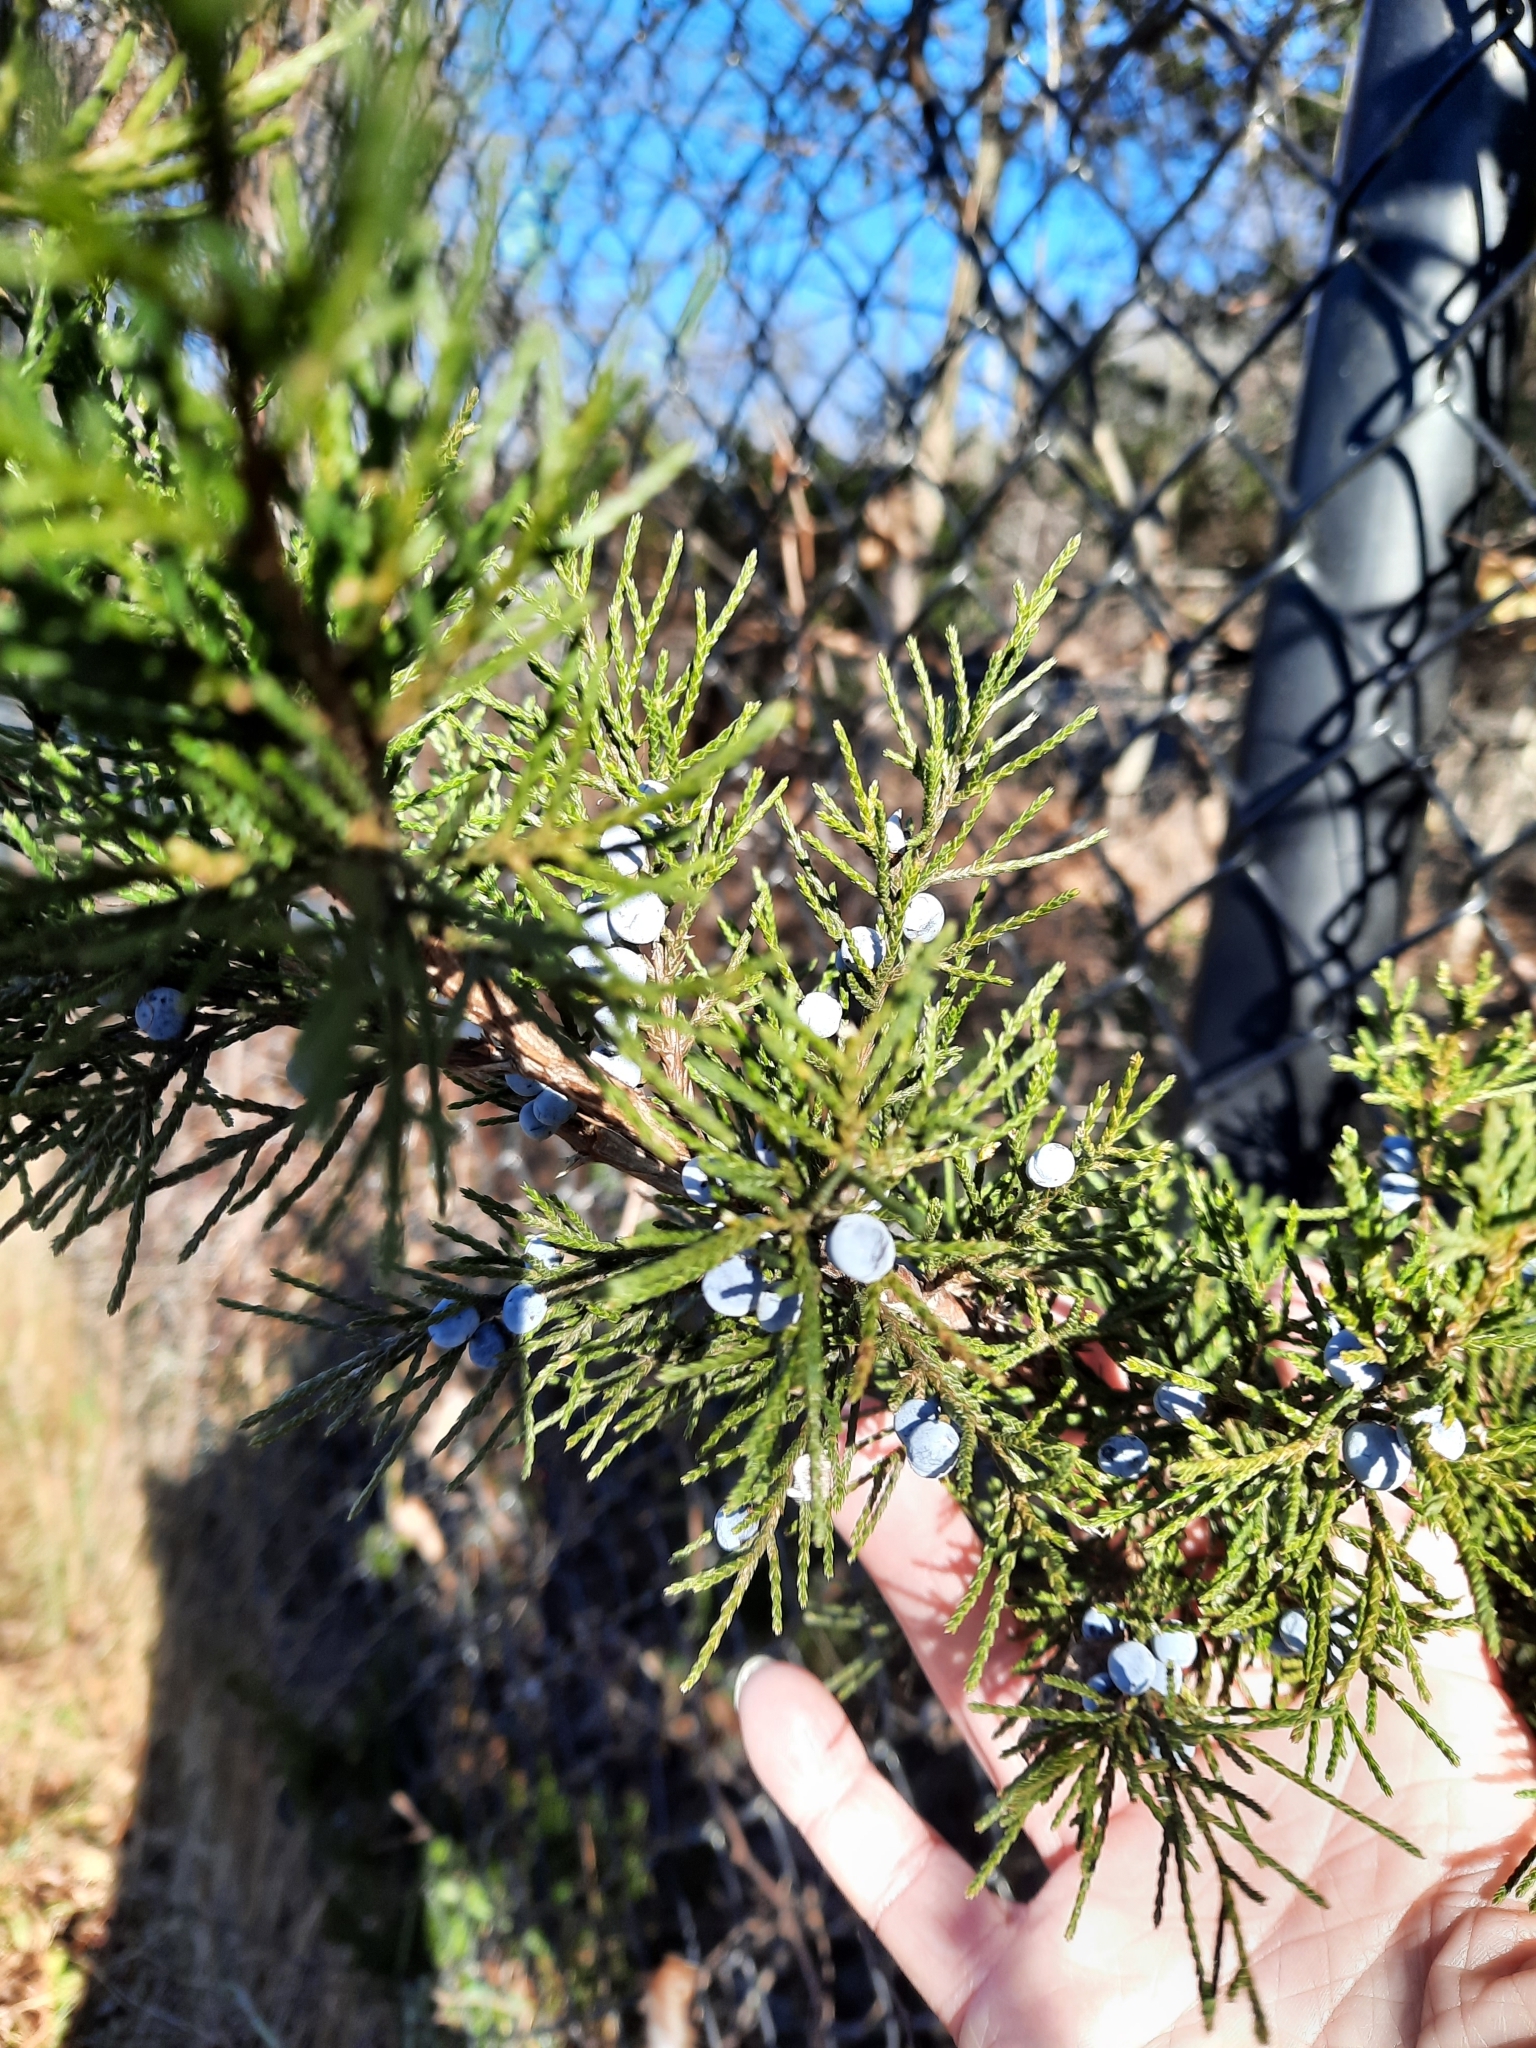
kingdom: Plantae
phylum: Tracheophyta
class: Pinopsida
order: Pinales
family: Cupressaceae
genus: Juniperus
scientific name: Juniperus virginiana
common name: Red juniper
